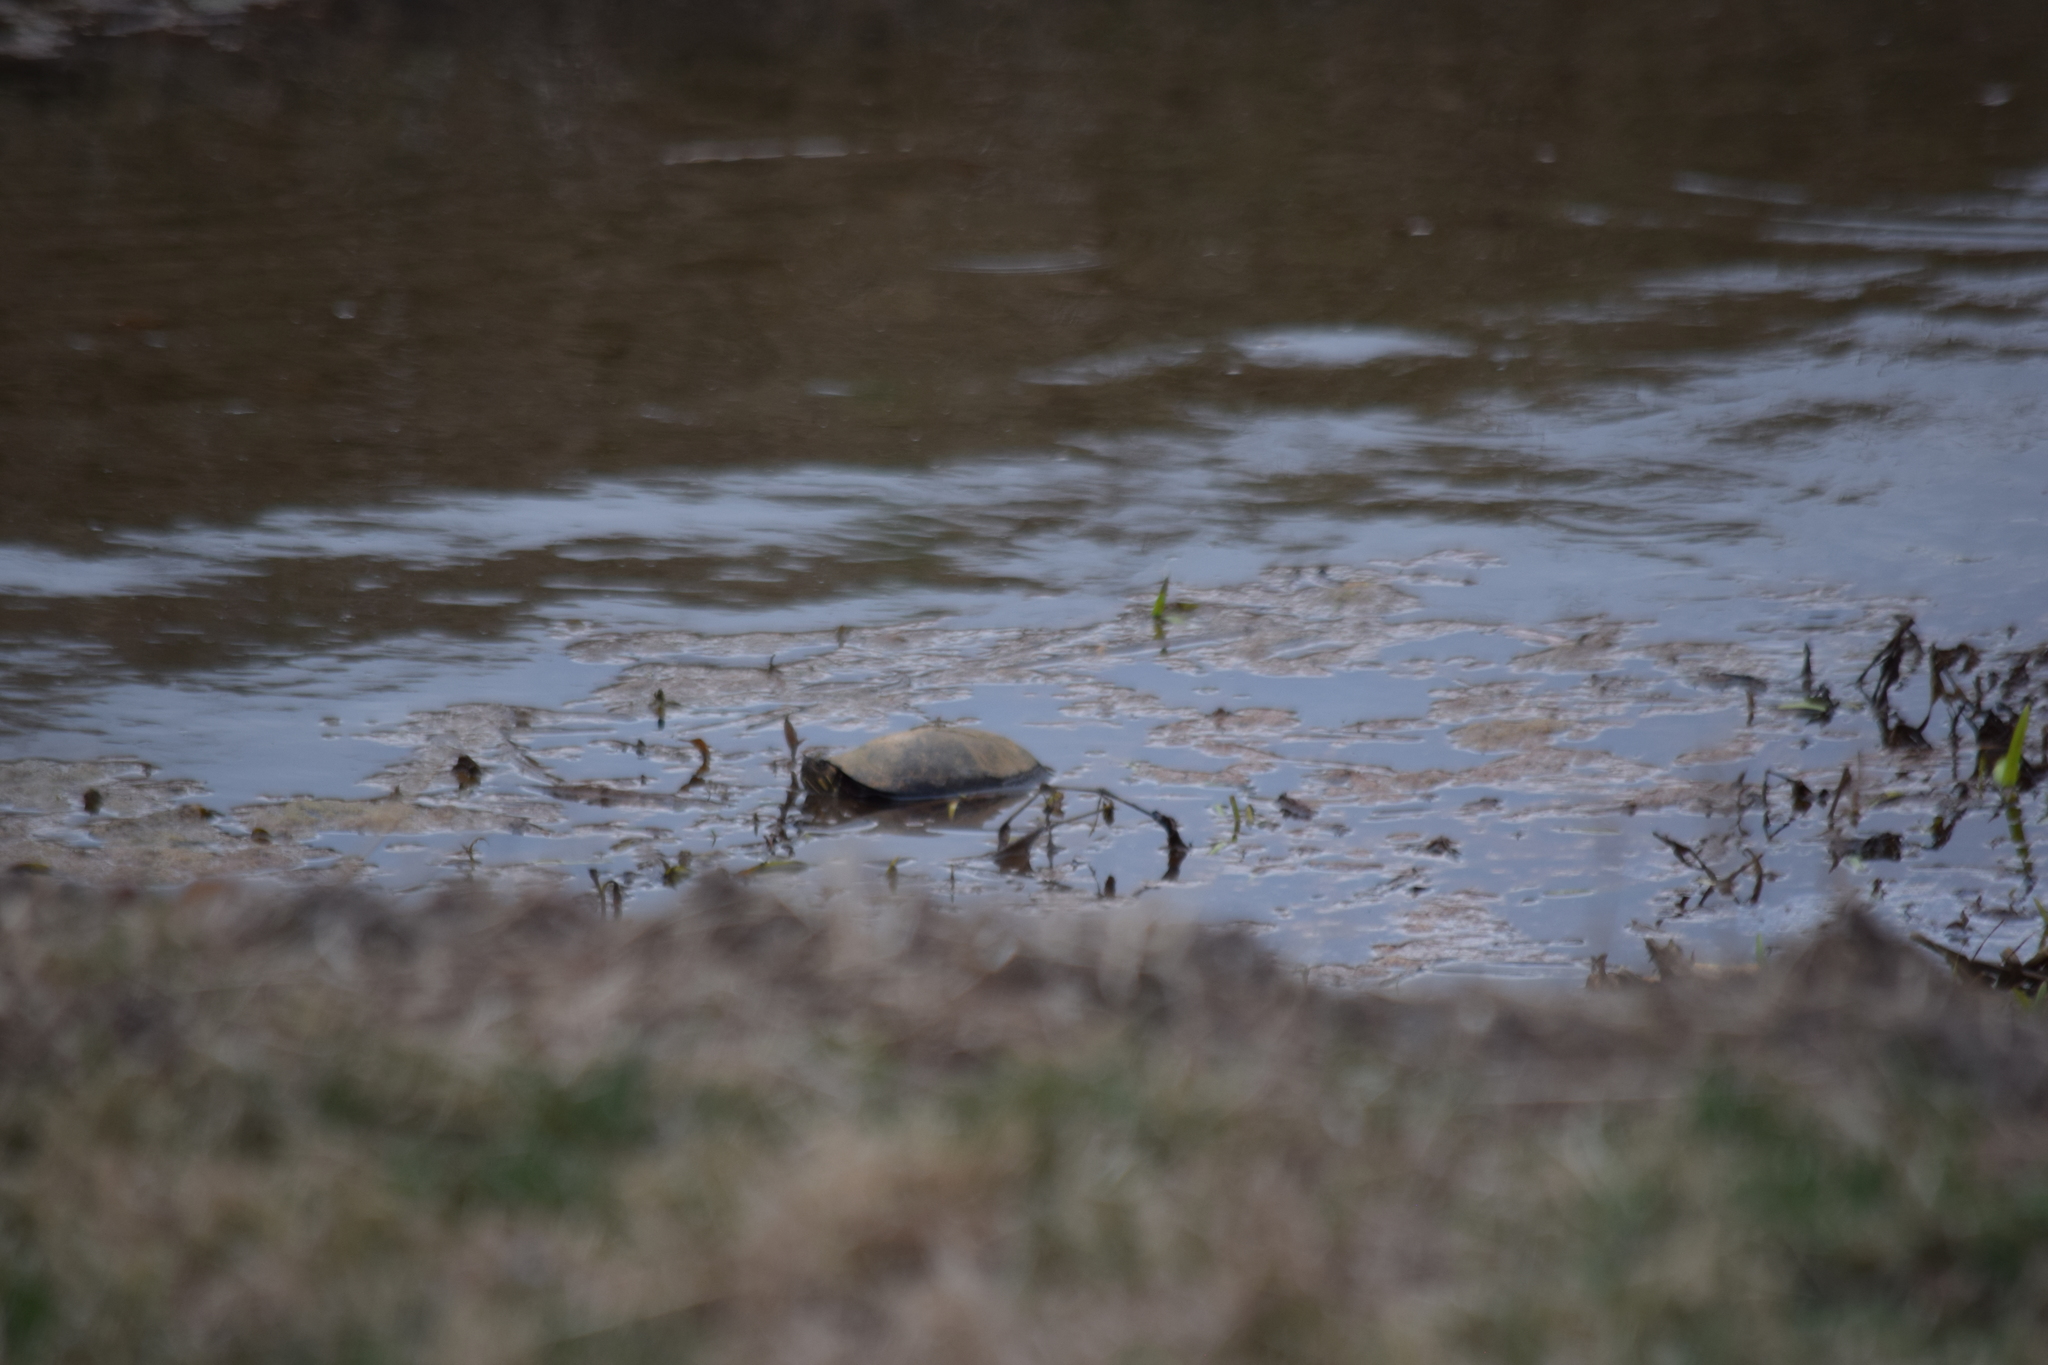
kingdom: Animalia
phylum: Chordata
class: Testudines
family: Emydidae
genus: Chrysemys
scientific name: Chrysemys picta
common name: Painted turtle
